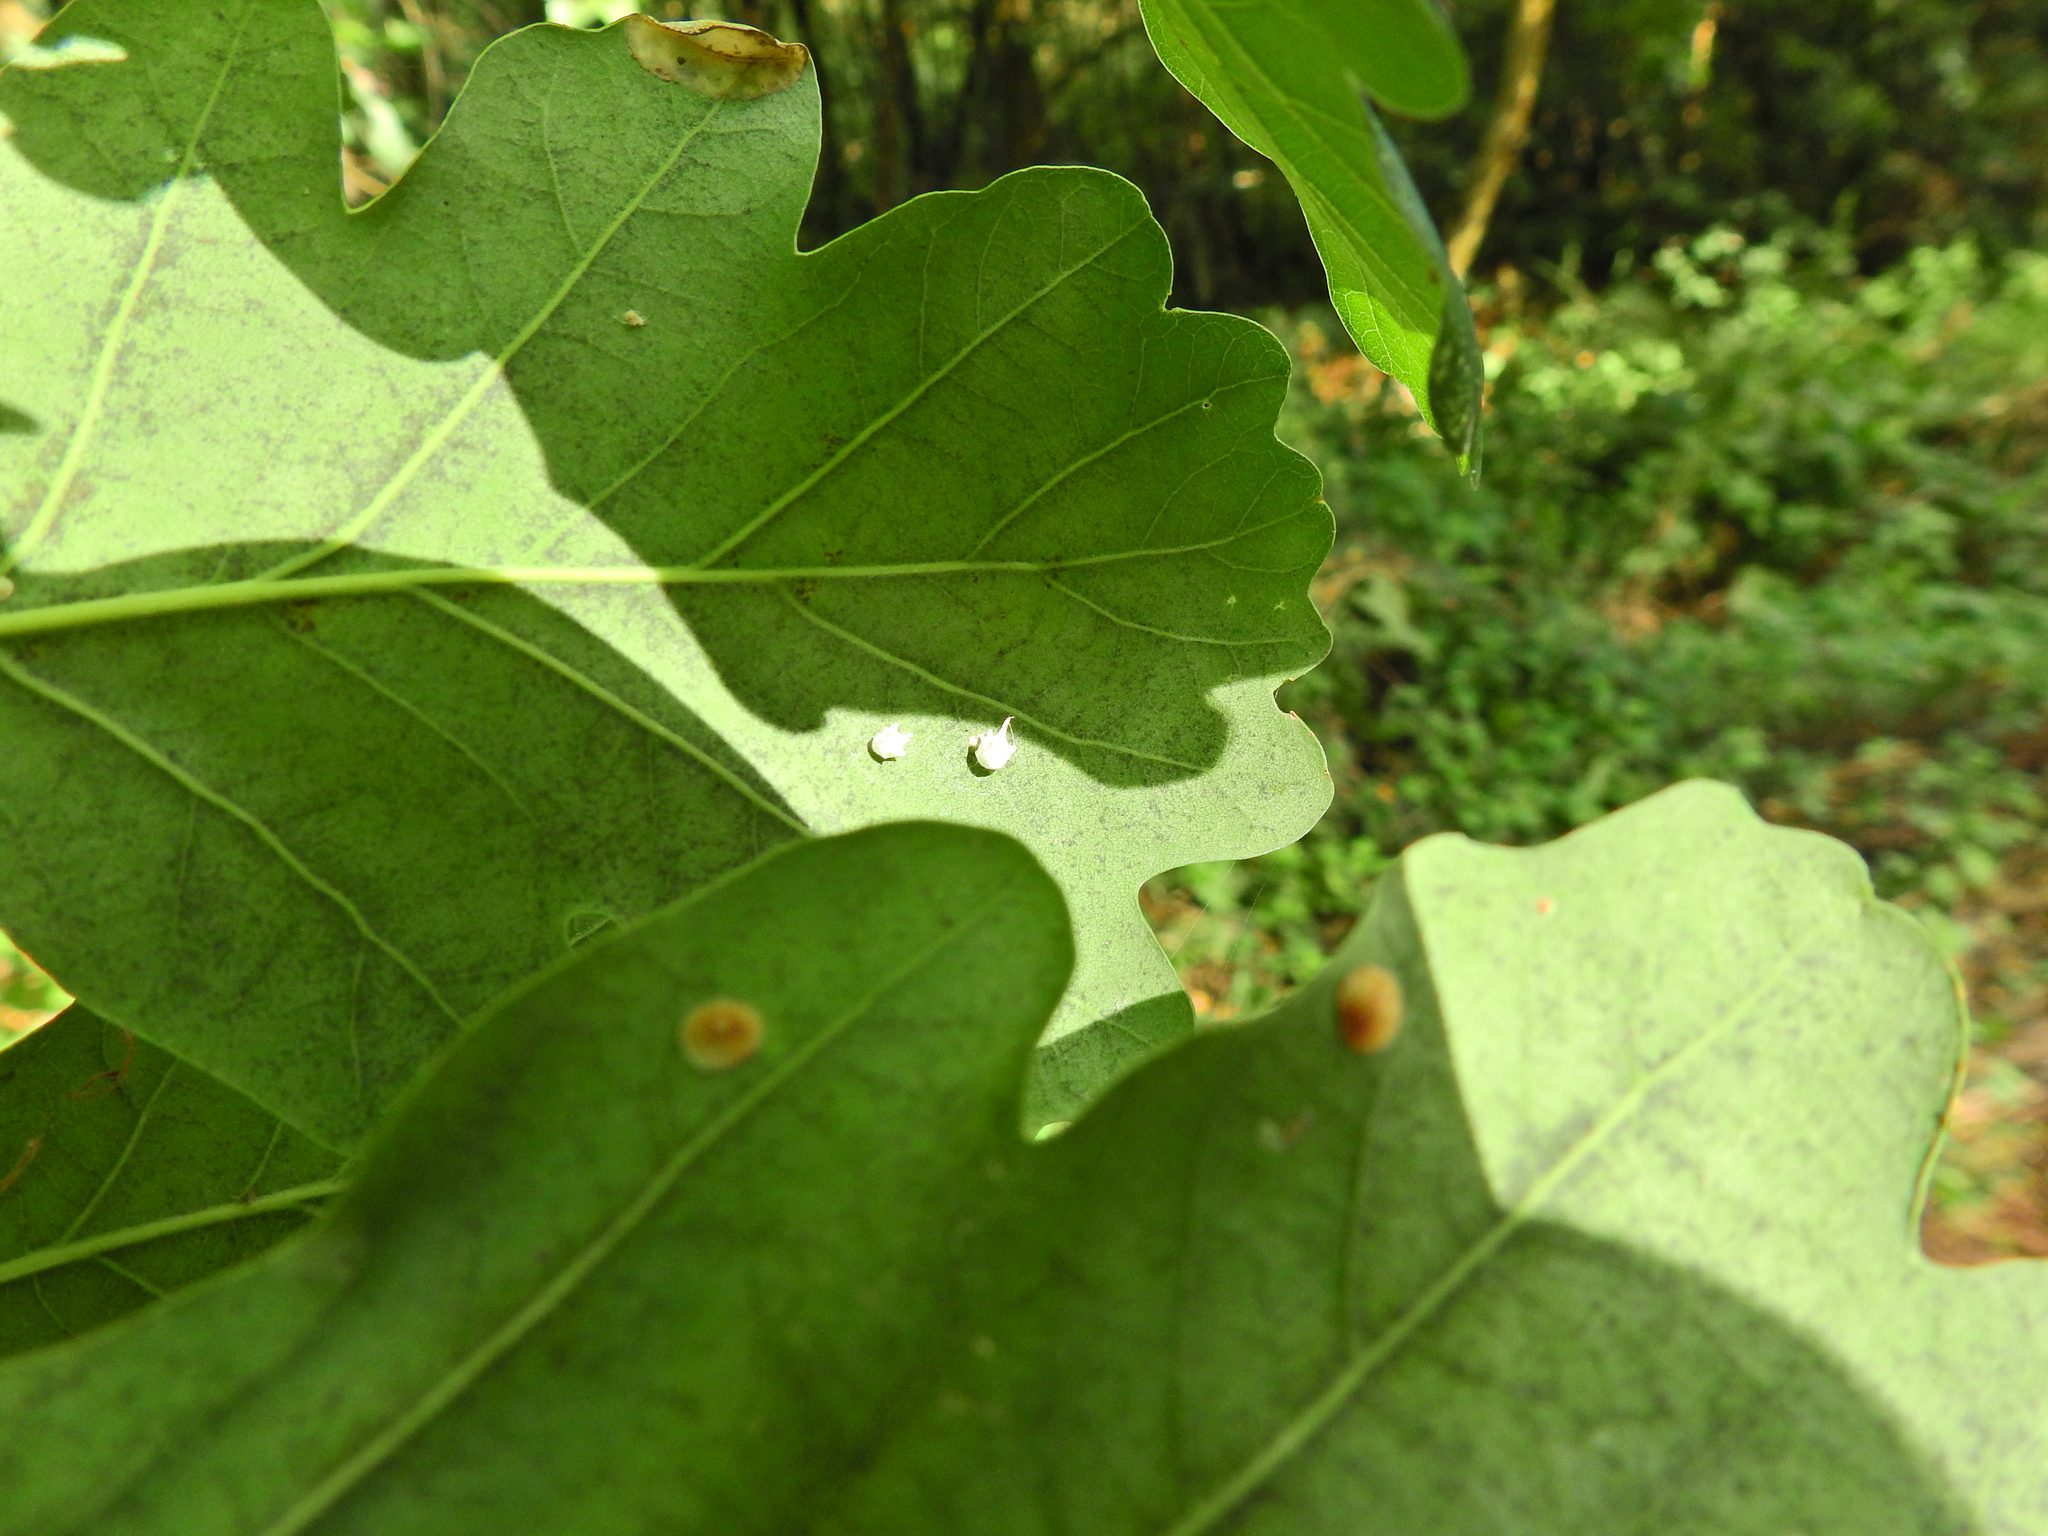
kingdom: Animalia
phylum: Arthropoda
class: Arachnida
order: Araneae
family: Theridiidae
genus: Paidiscura
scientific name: Paidiscura pallens
